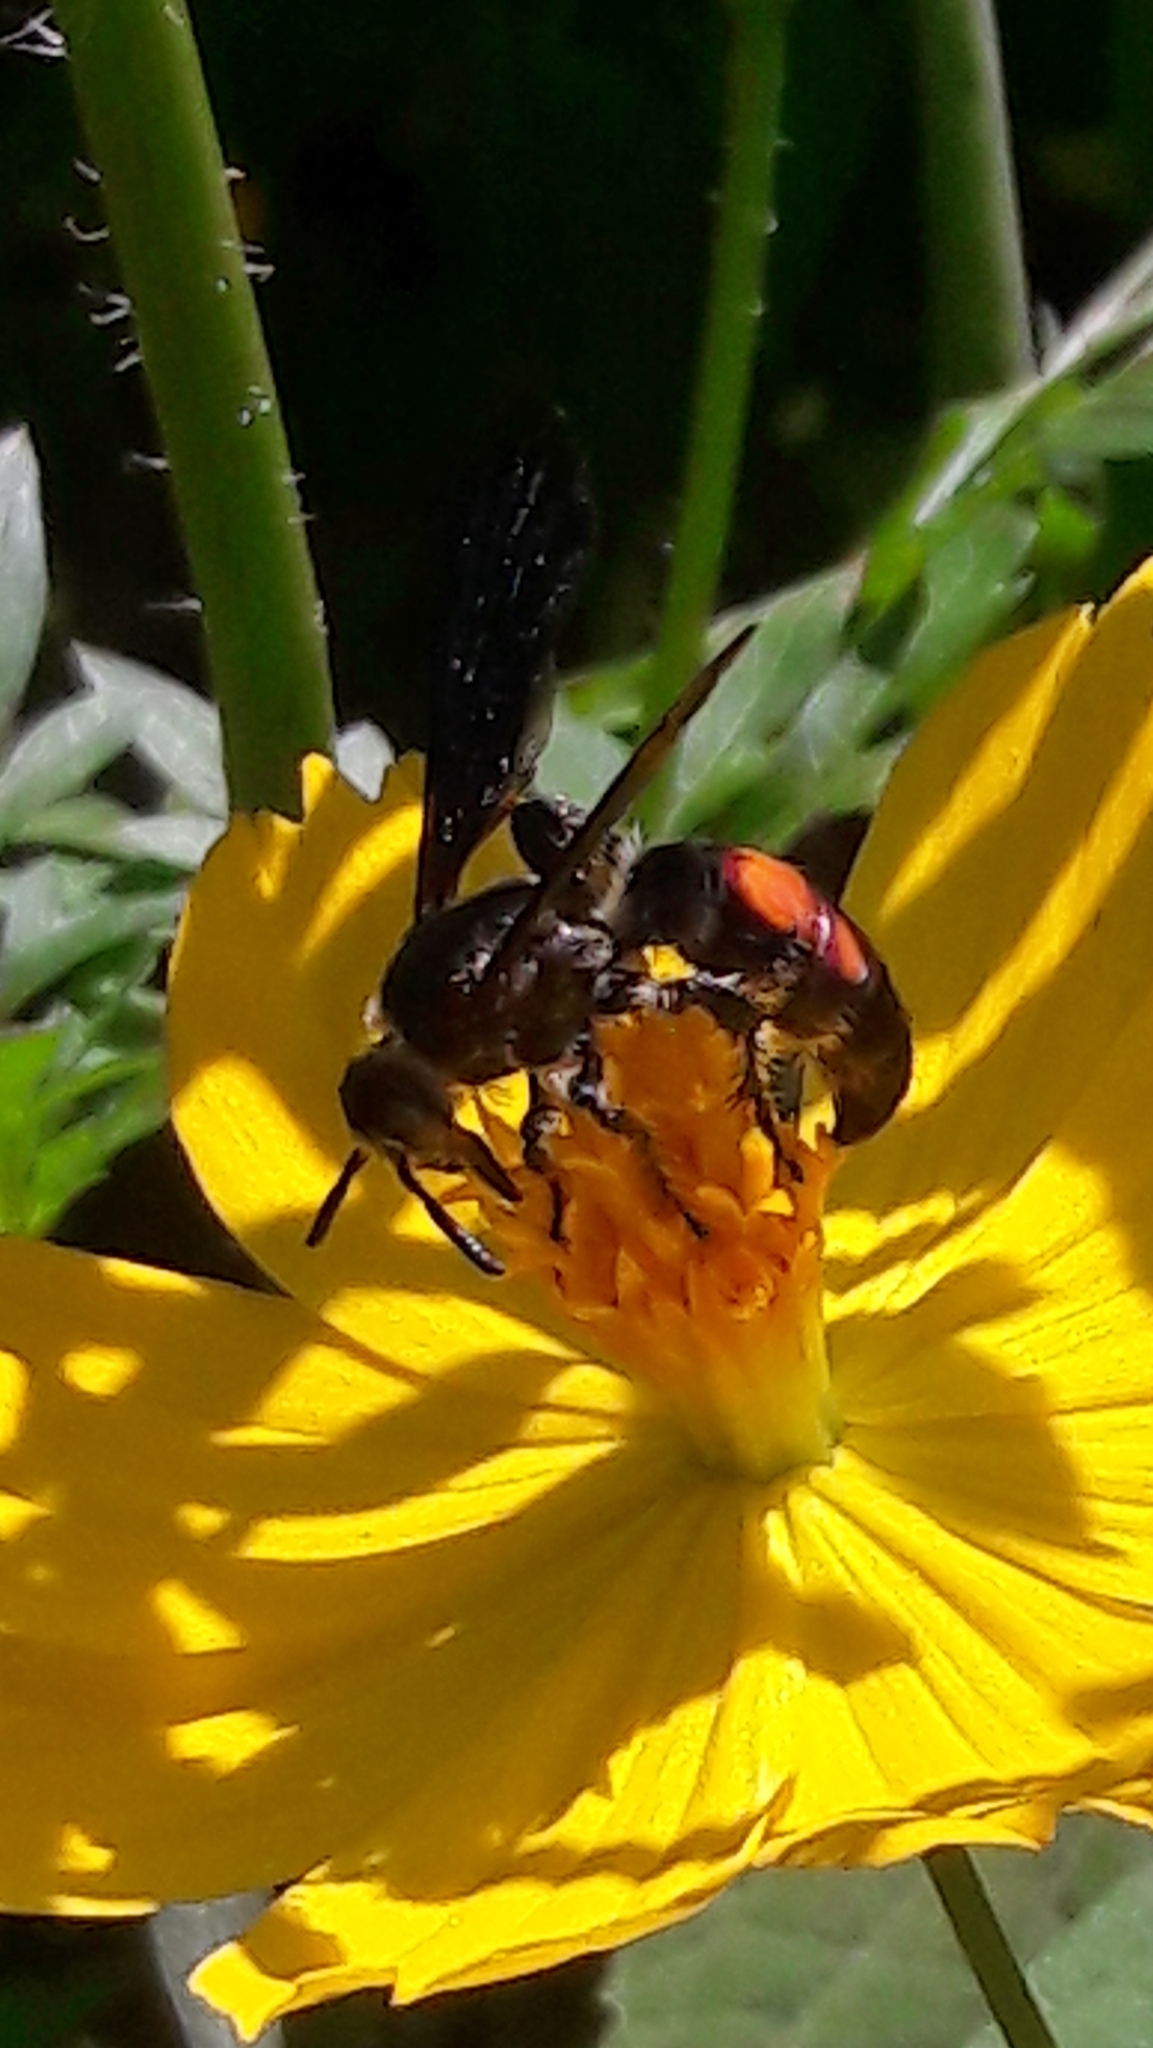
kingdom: Animalia
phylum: Arthropoda
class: Insecta
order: Hymenoptera
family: Scoliidae
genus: Dielis
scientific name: Dielis dorsata
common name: Scoliid wasp
